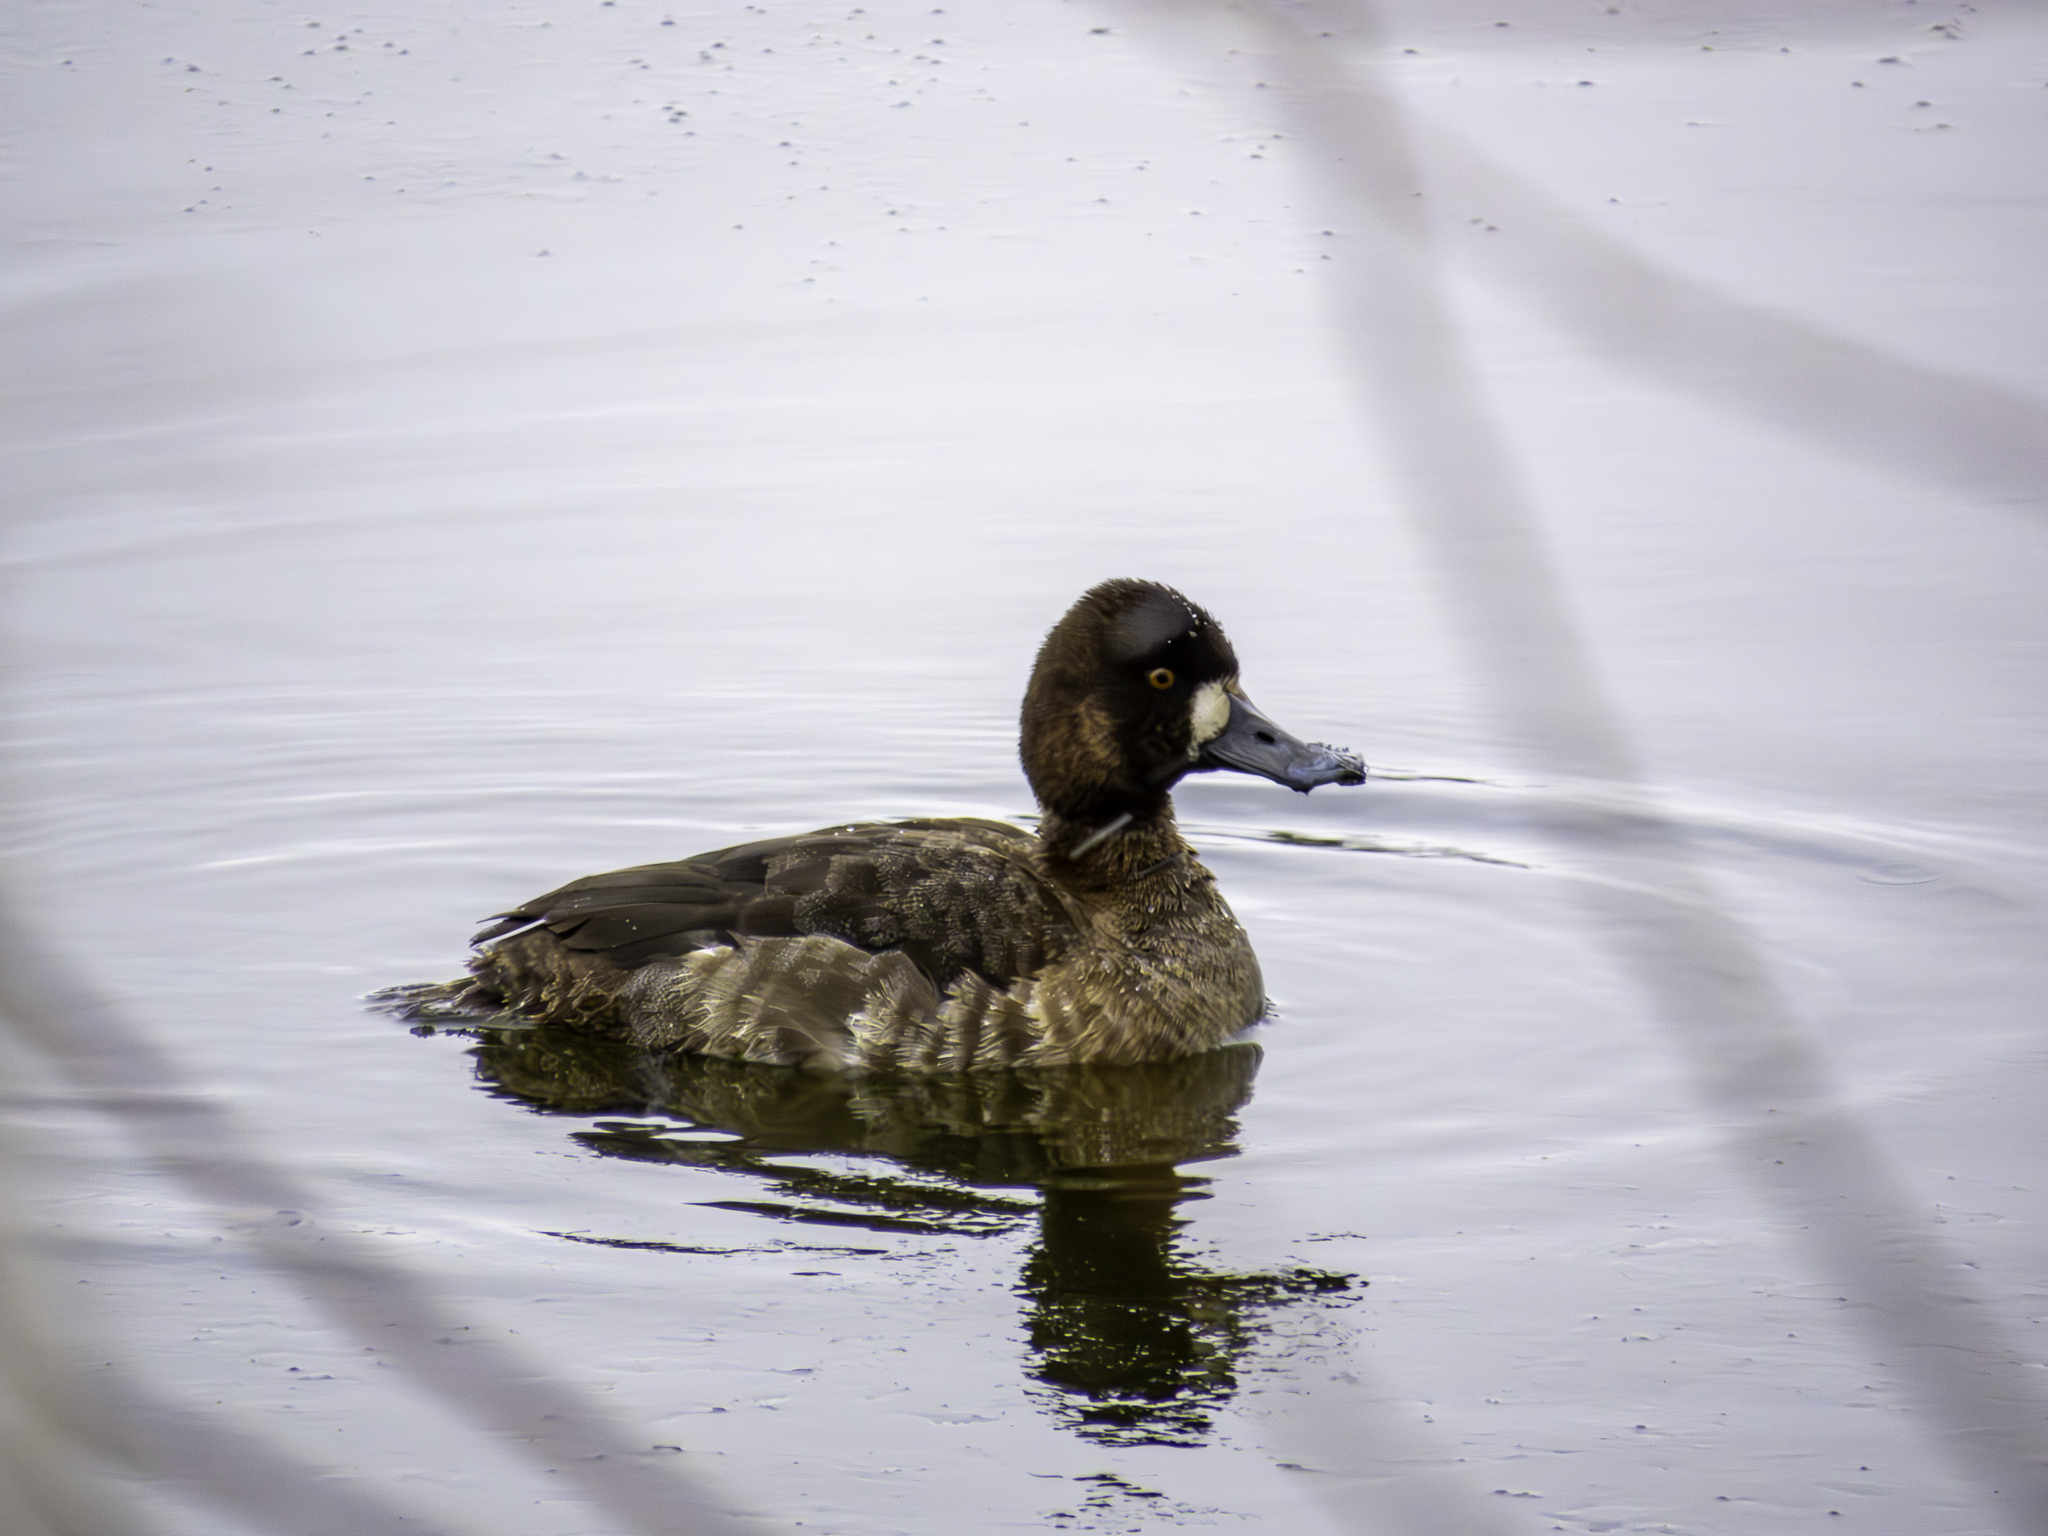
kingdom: Animalia
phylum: Chordata
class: Aves
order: Anseriformes
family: Anatidae
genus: Aythya
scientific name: Aythya affinis
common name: Lesser scaup
